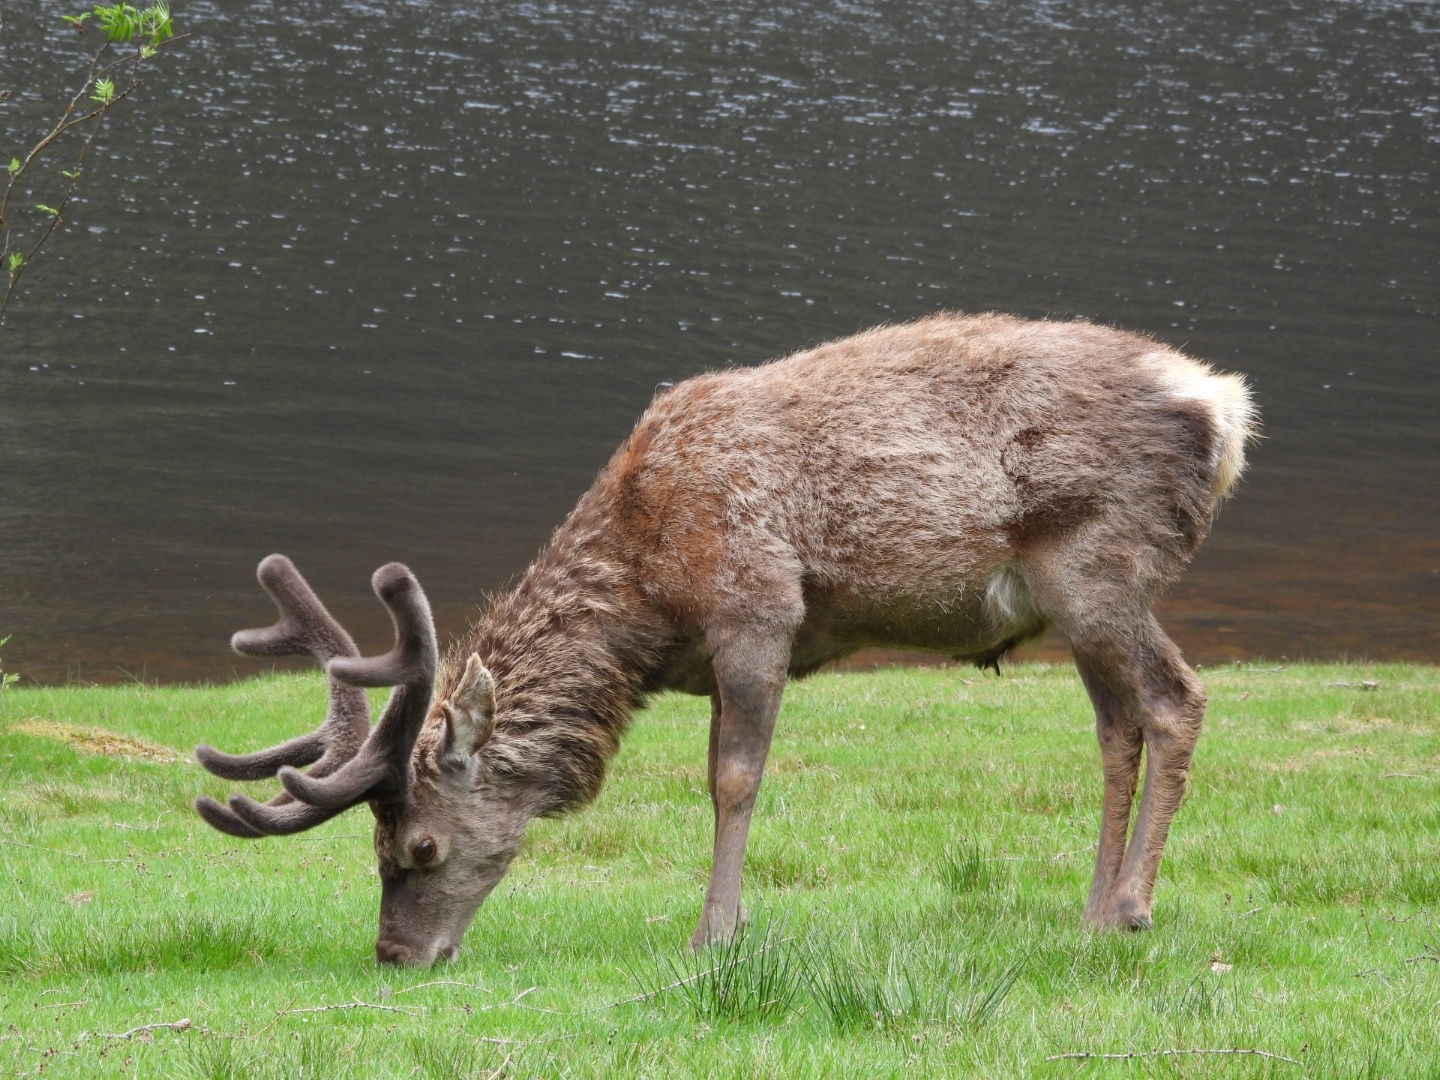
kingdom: Animalia
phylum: Chordata
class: Mammalia
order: Artiodactyla
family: Cervidae
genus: Cervus
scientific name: Cervus elaphus
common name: Red deer
